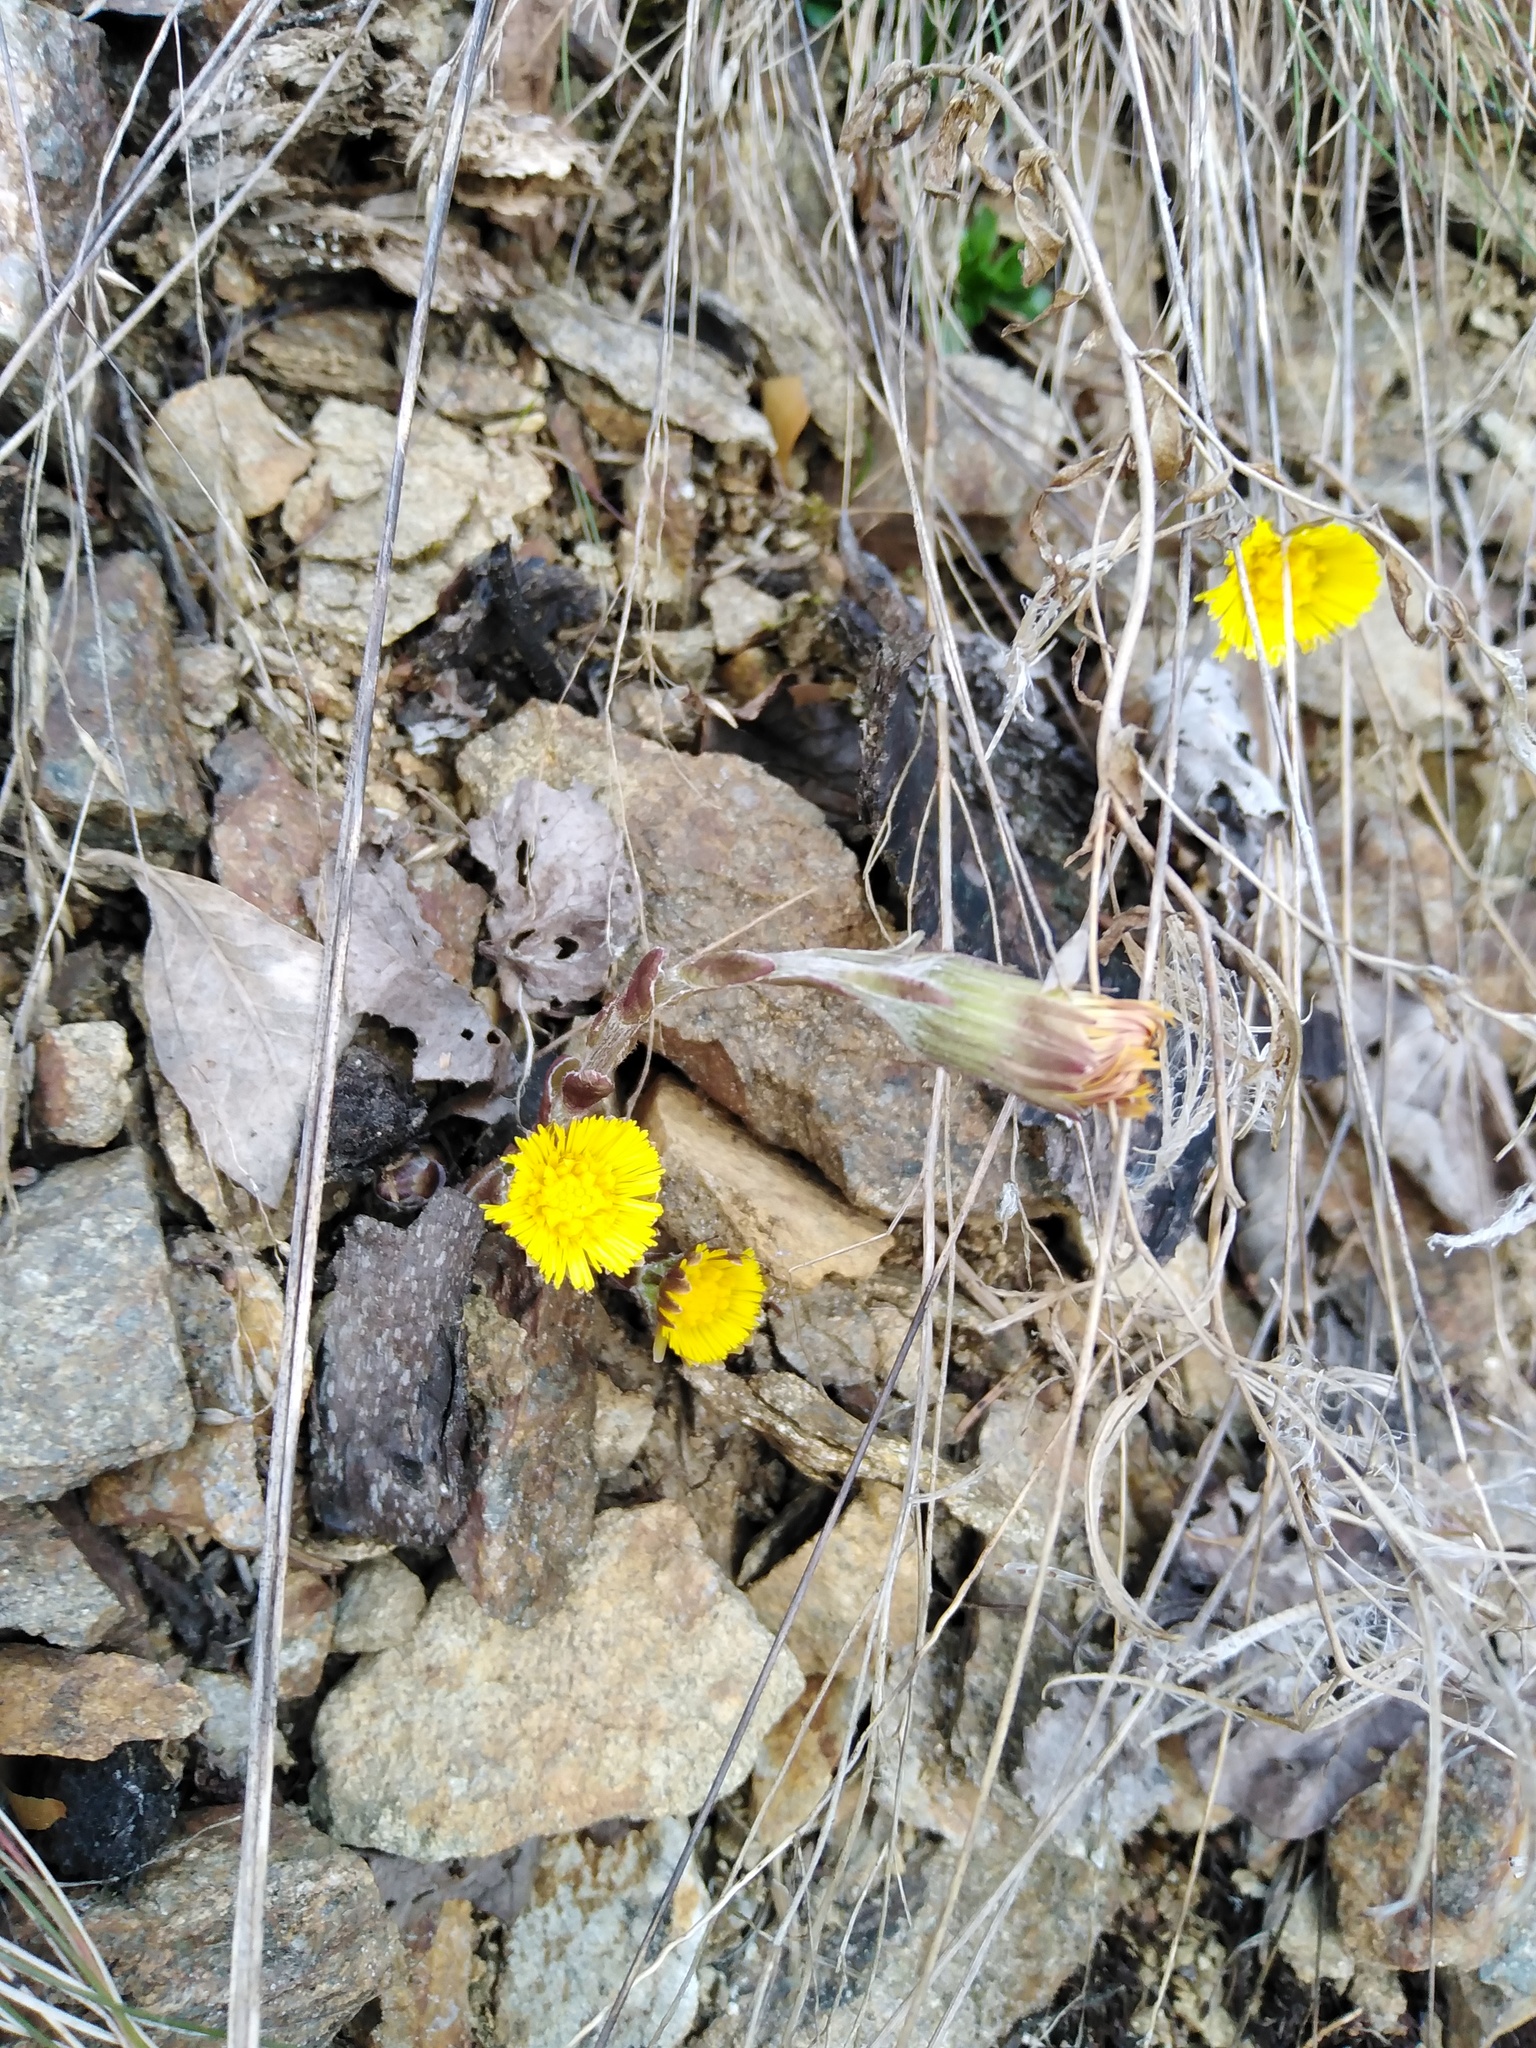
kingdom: Plantae
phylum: Tracheophyta
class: Magnoliopsida
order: Asterales
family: Asteraceae
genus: Tussilago
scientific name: Tussilago farfara
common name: Coltsfoot
